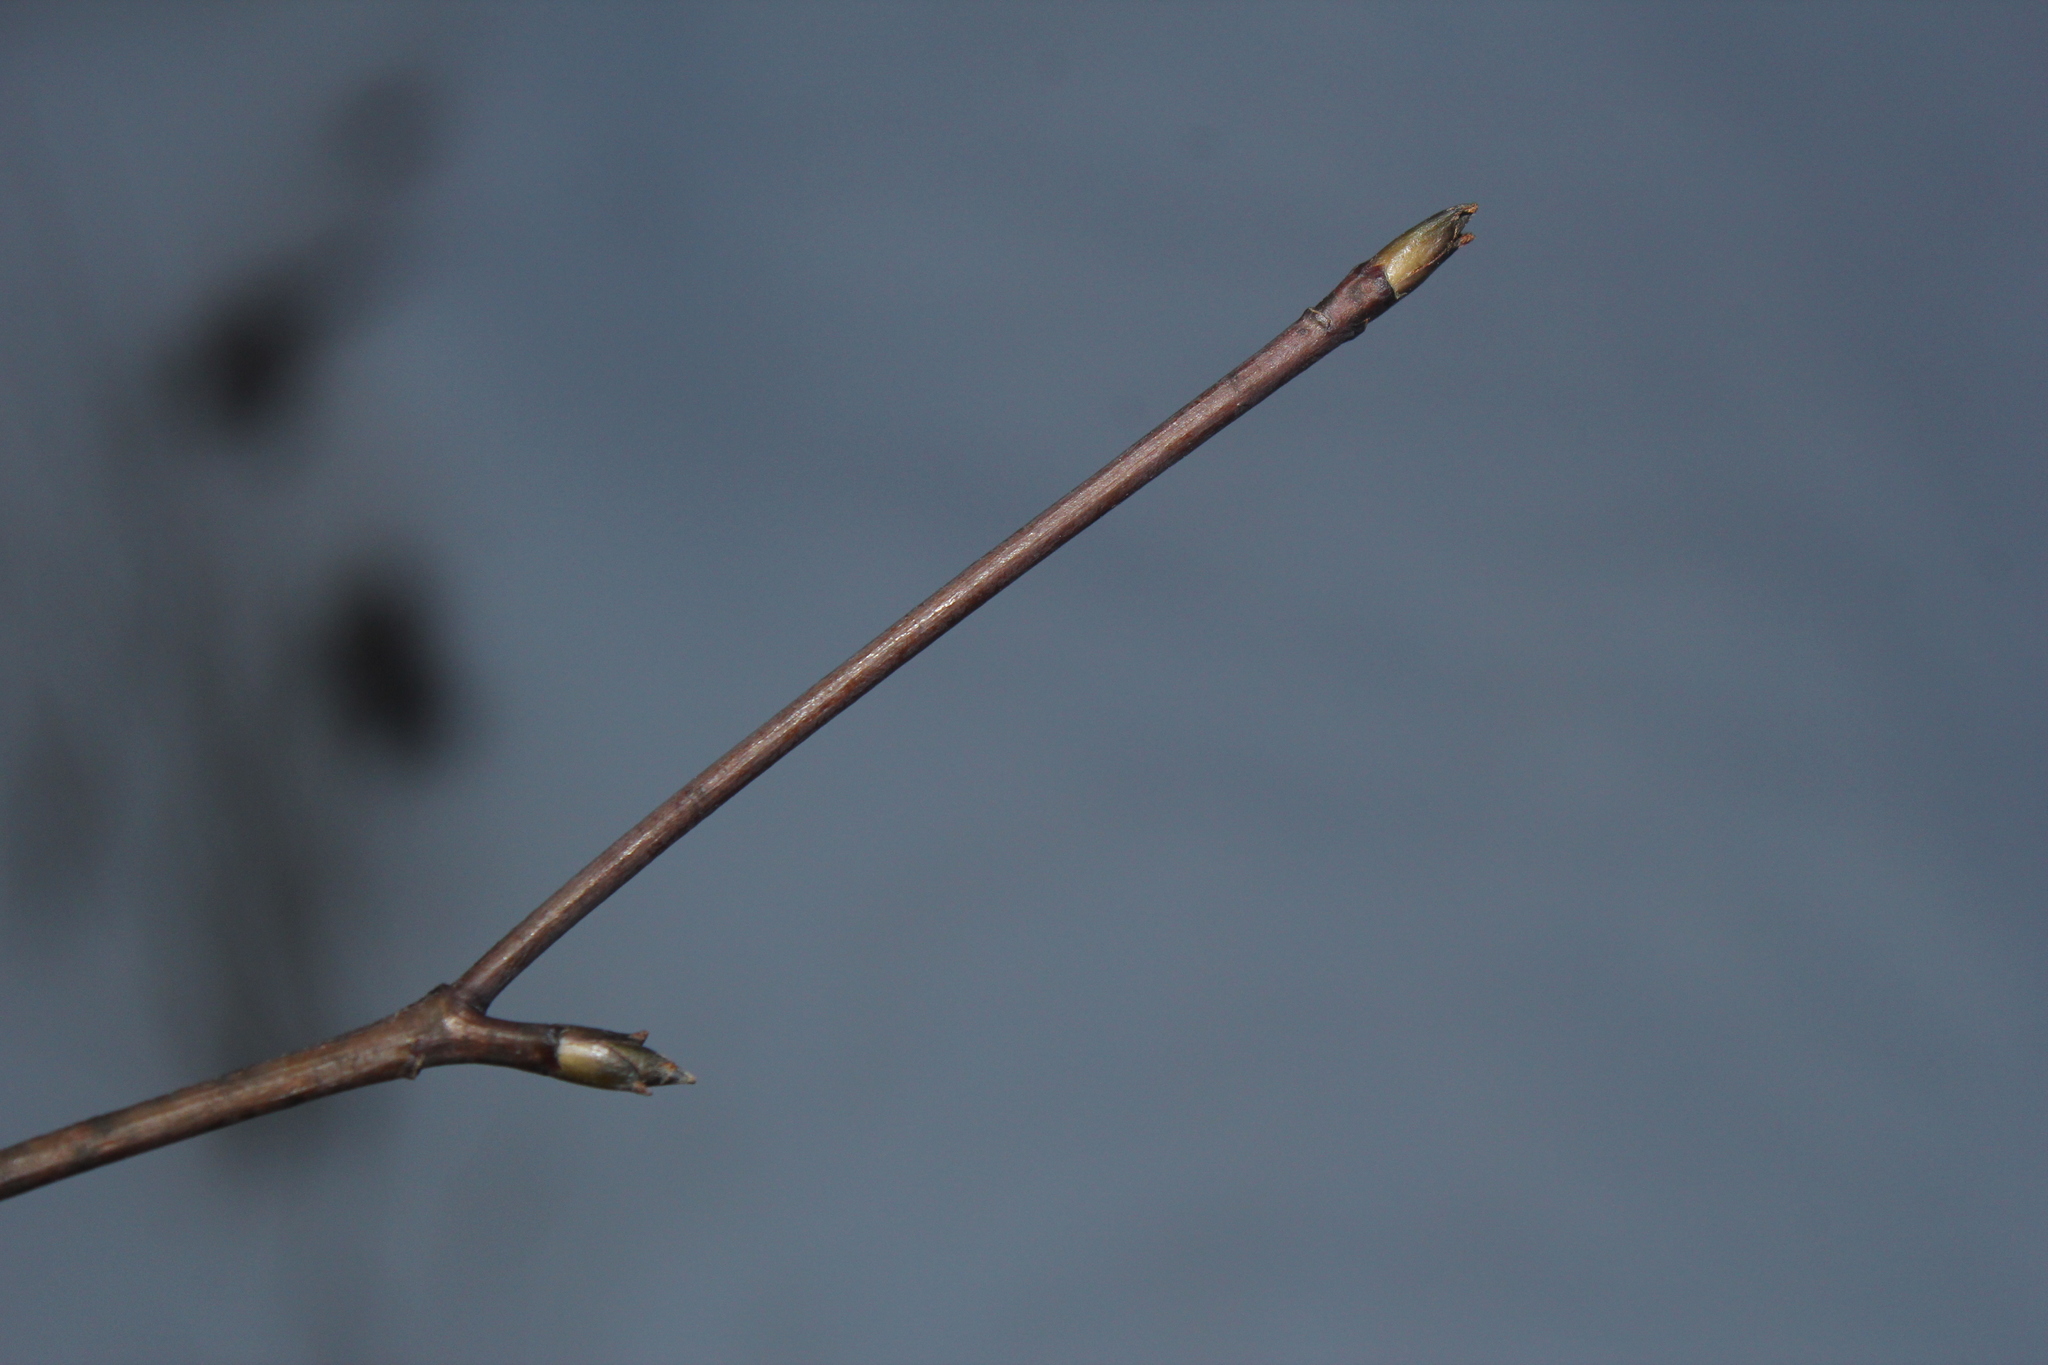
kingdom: Plantae
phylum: Tracheophyta
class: Magnoliopsida
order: Cornales
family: Cornaceae
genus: Cornus
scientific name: Cornus alternifolia
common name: Pagoda dogwood
